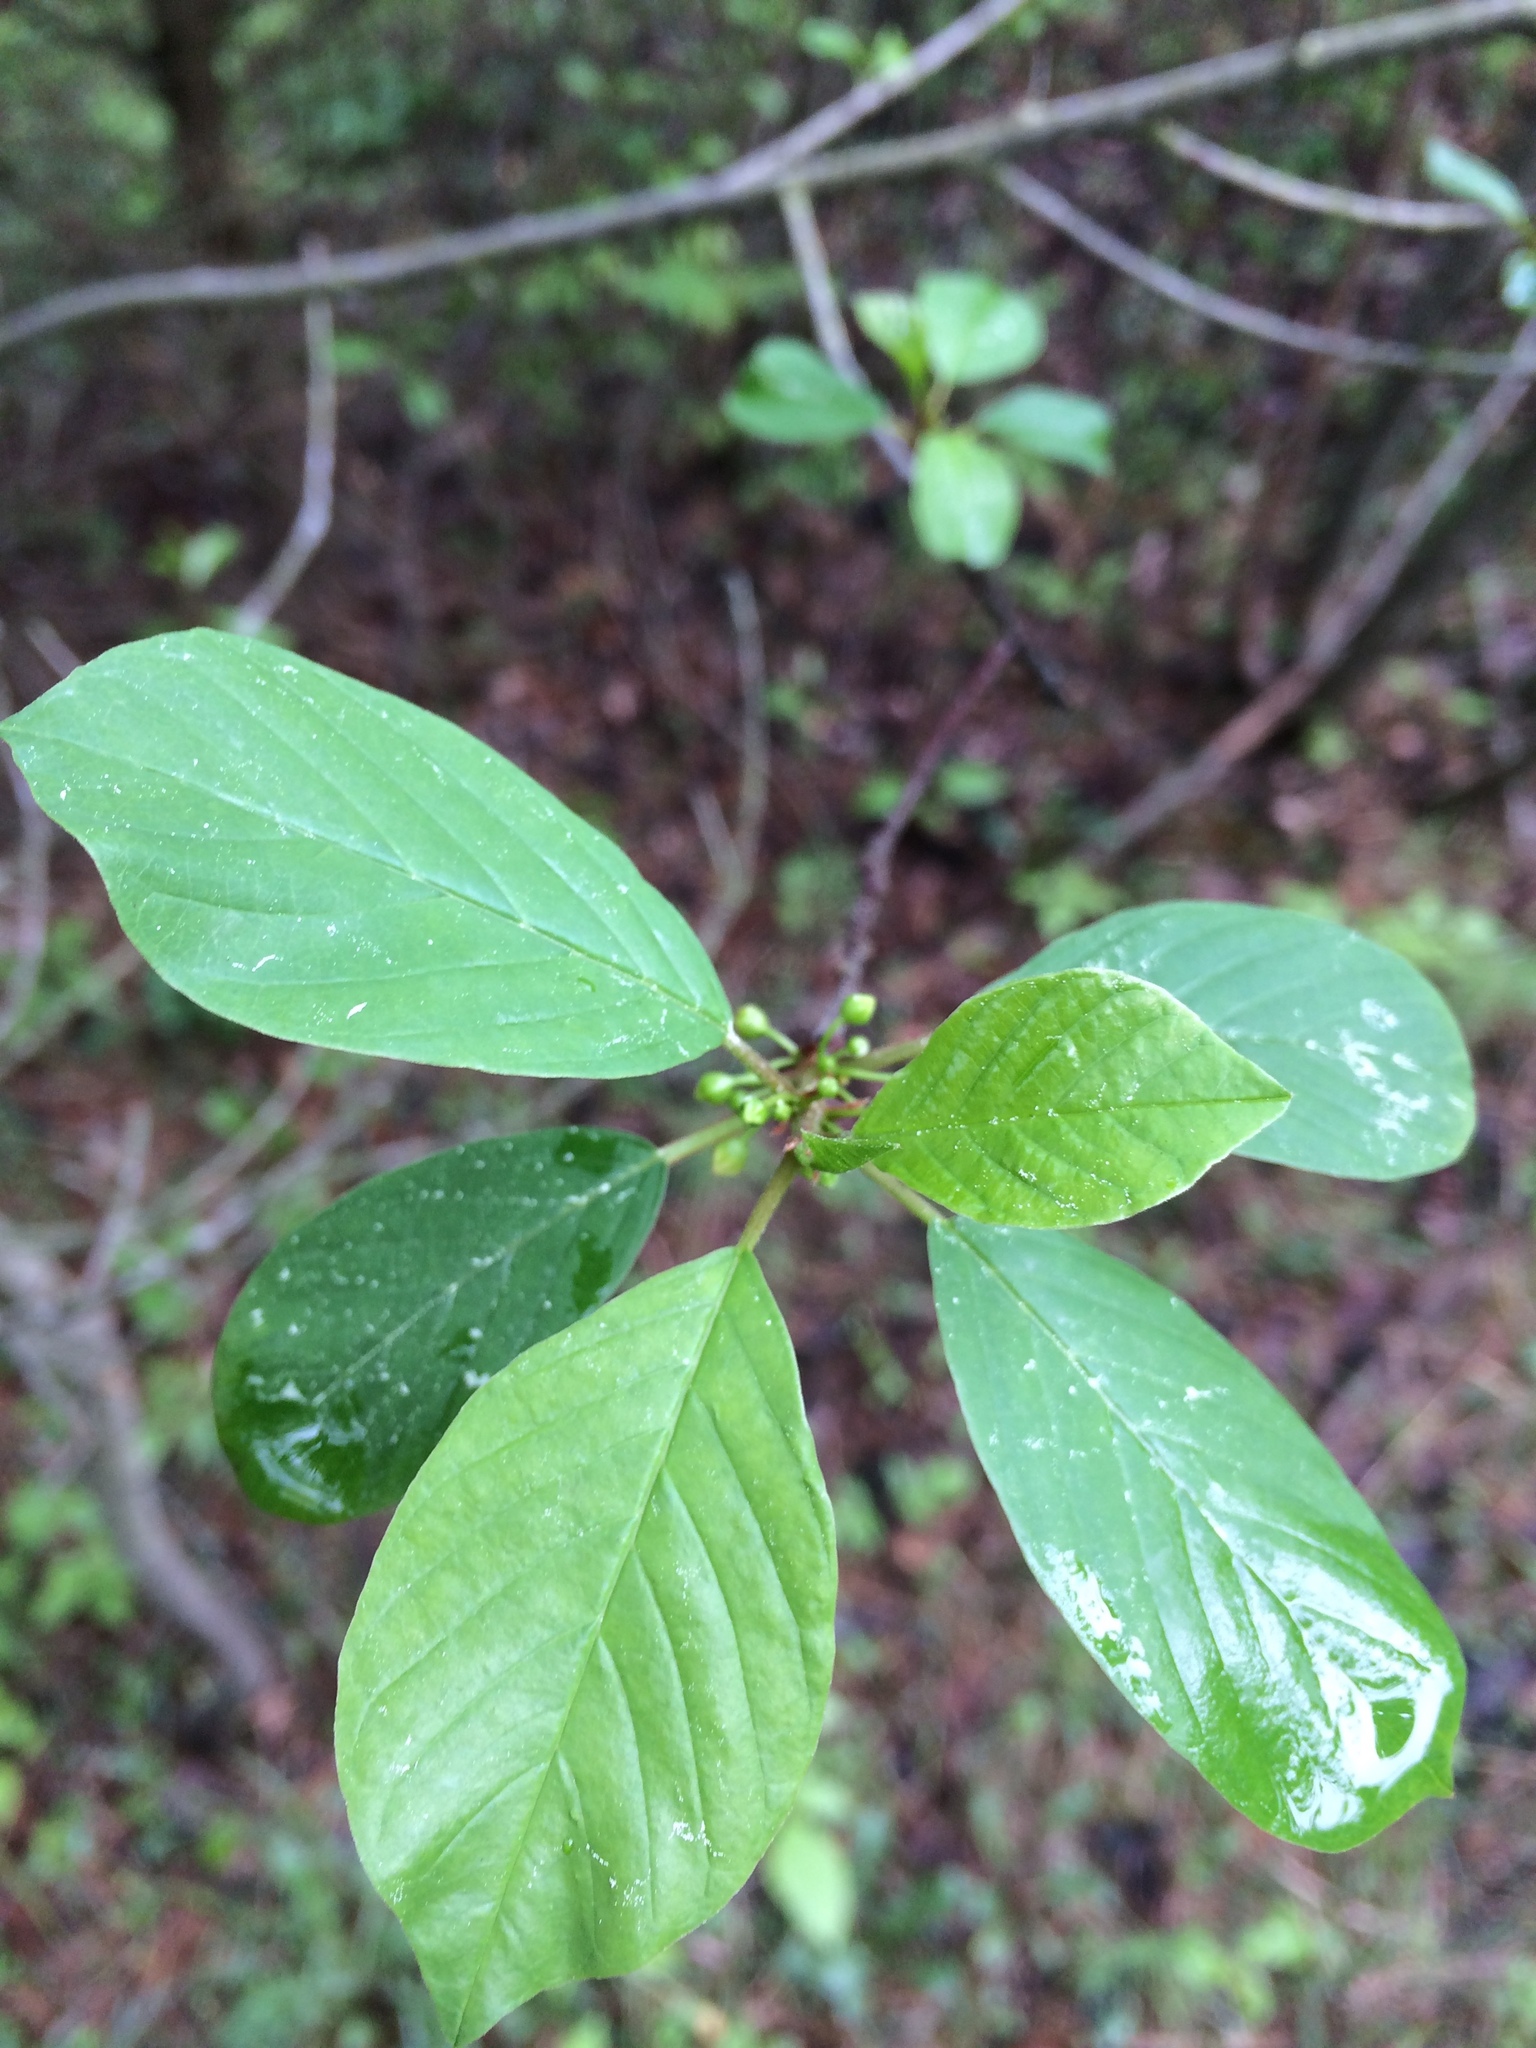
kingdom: Plantae
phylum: Tracheophyta
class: Magnoliopsida
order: Rosales
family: Rhamnaceae
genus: Frangula
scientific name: Frangula alnus
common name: Alder buckthorn
